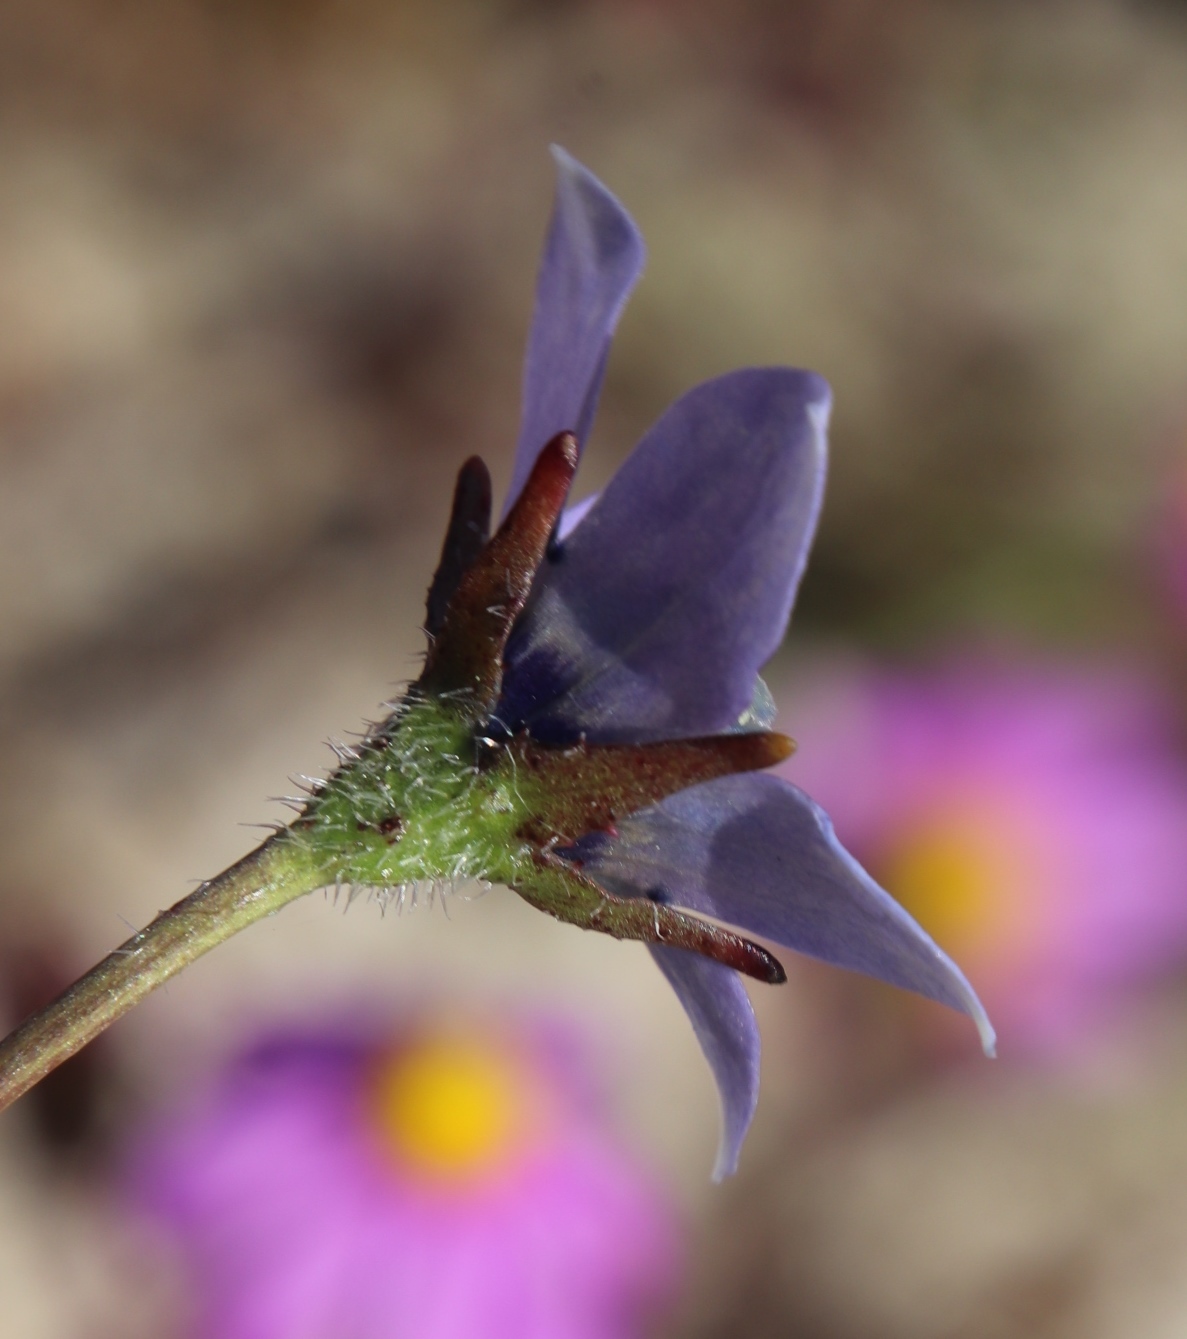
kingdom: Plantae
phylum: Tracheophyta
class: Magnoliopsida
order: Asterales
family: Campanulaceae
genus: Wahlenbergia
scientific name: Wahlenbergia capensis
